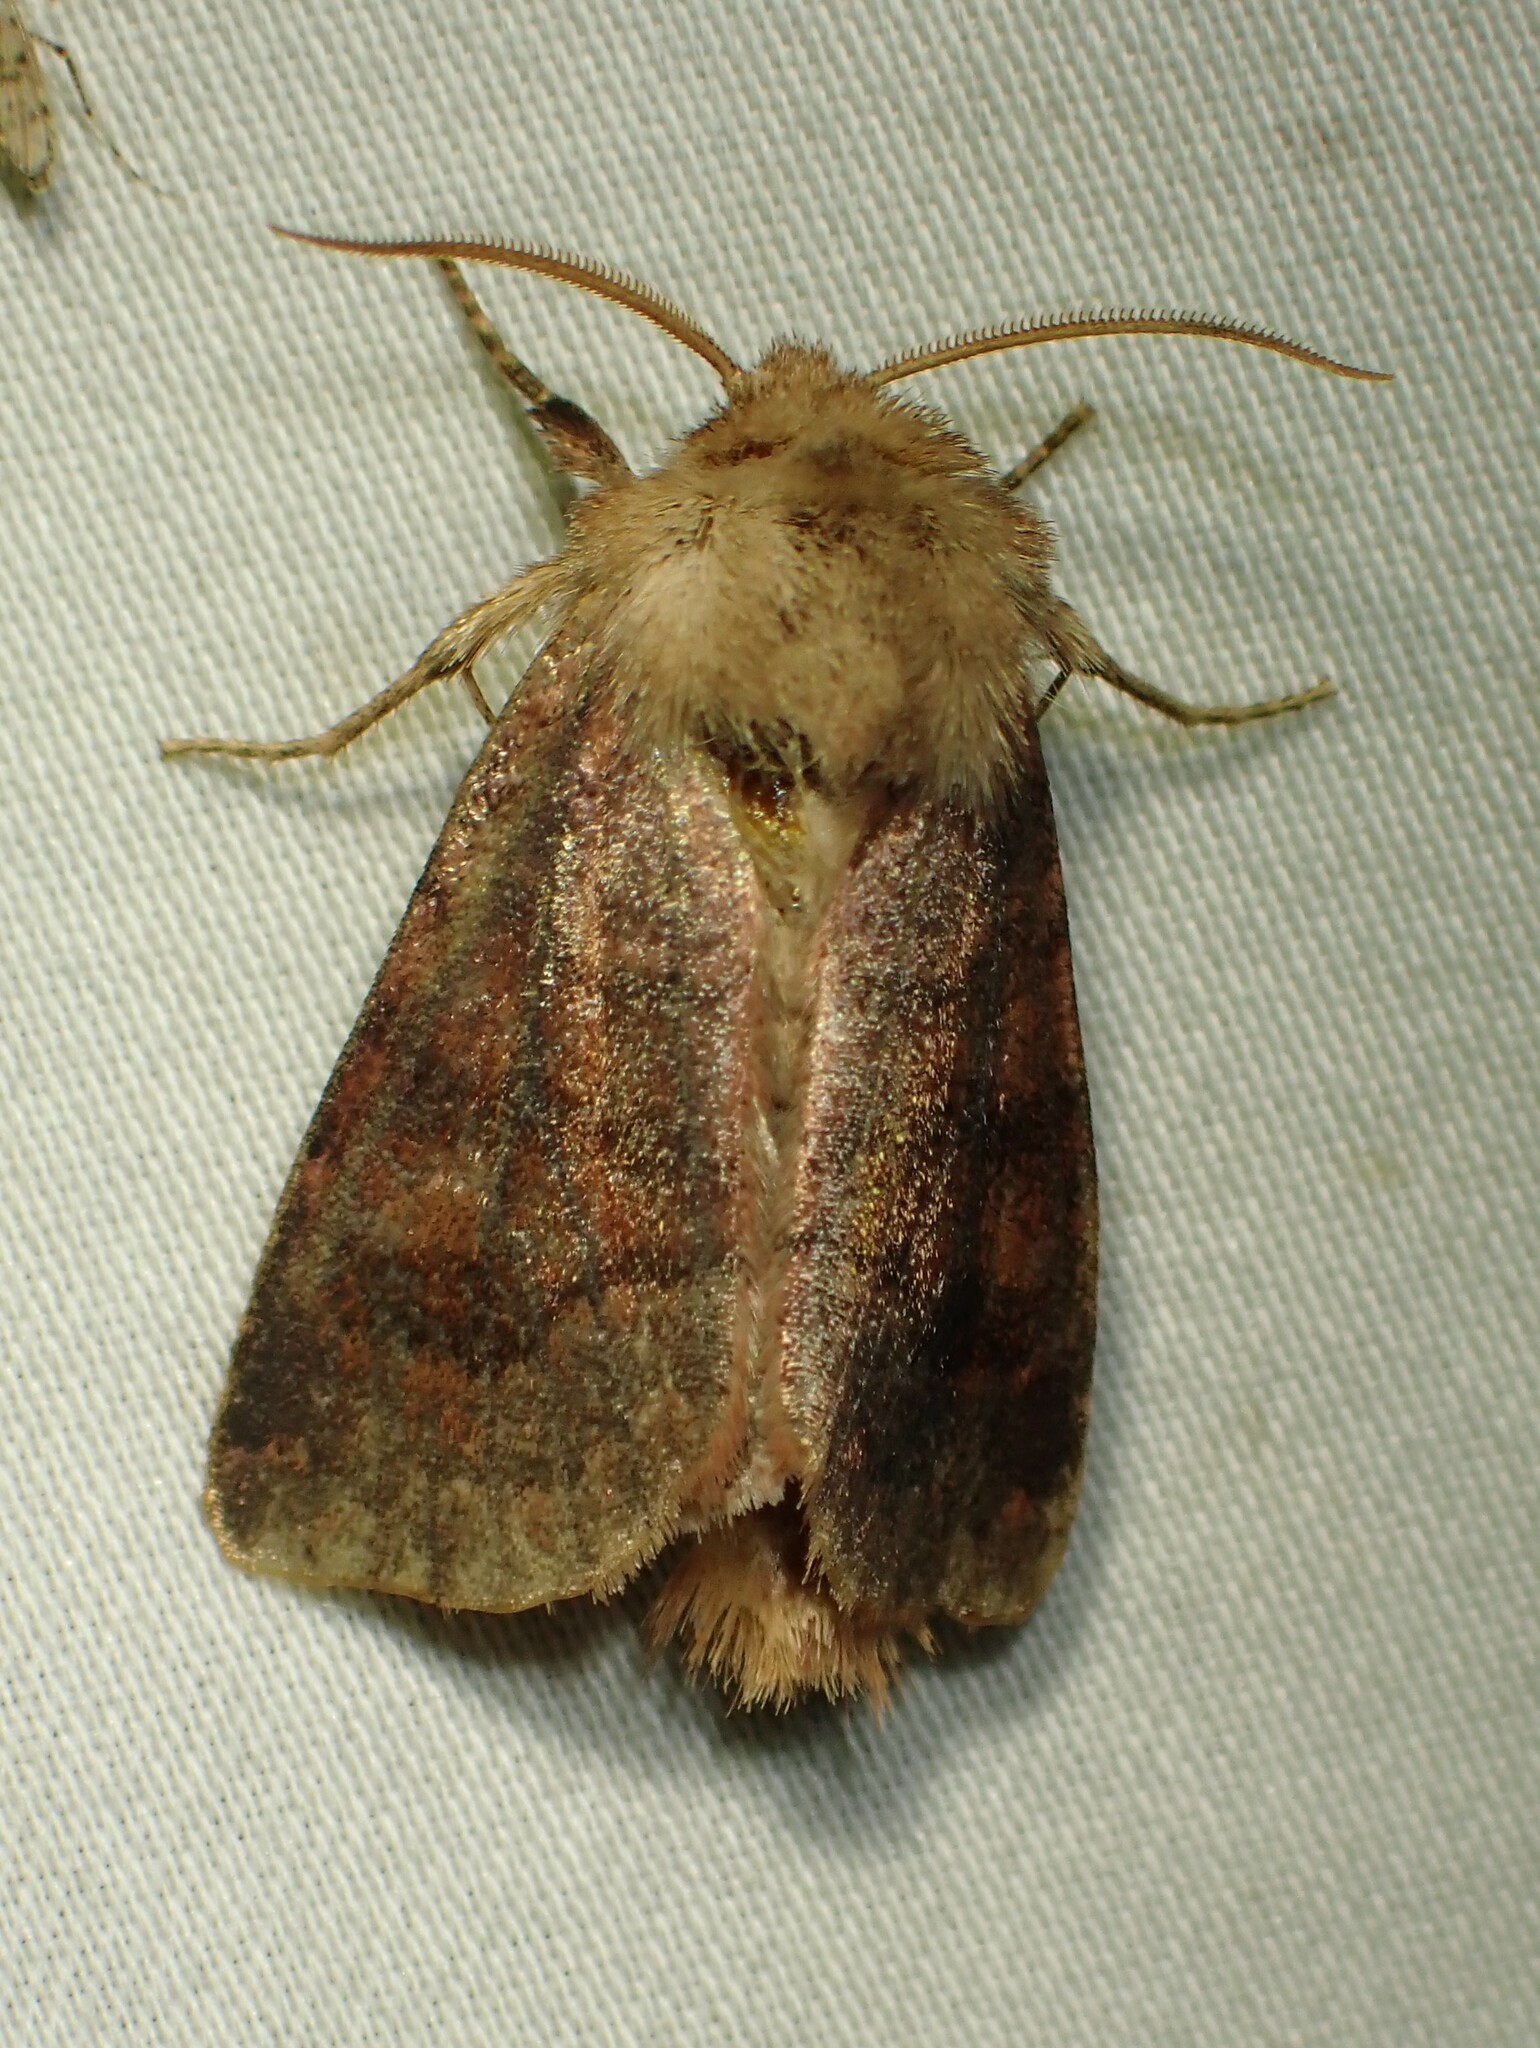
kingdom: Animalia
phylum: Arthropoda
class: Insecta
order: Lepidoptera
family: Noctuidae
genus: Nephelodes
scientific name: Nephelodes minians
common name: Bronzed cutworm
